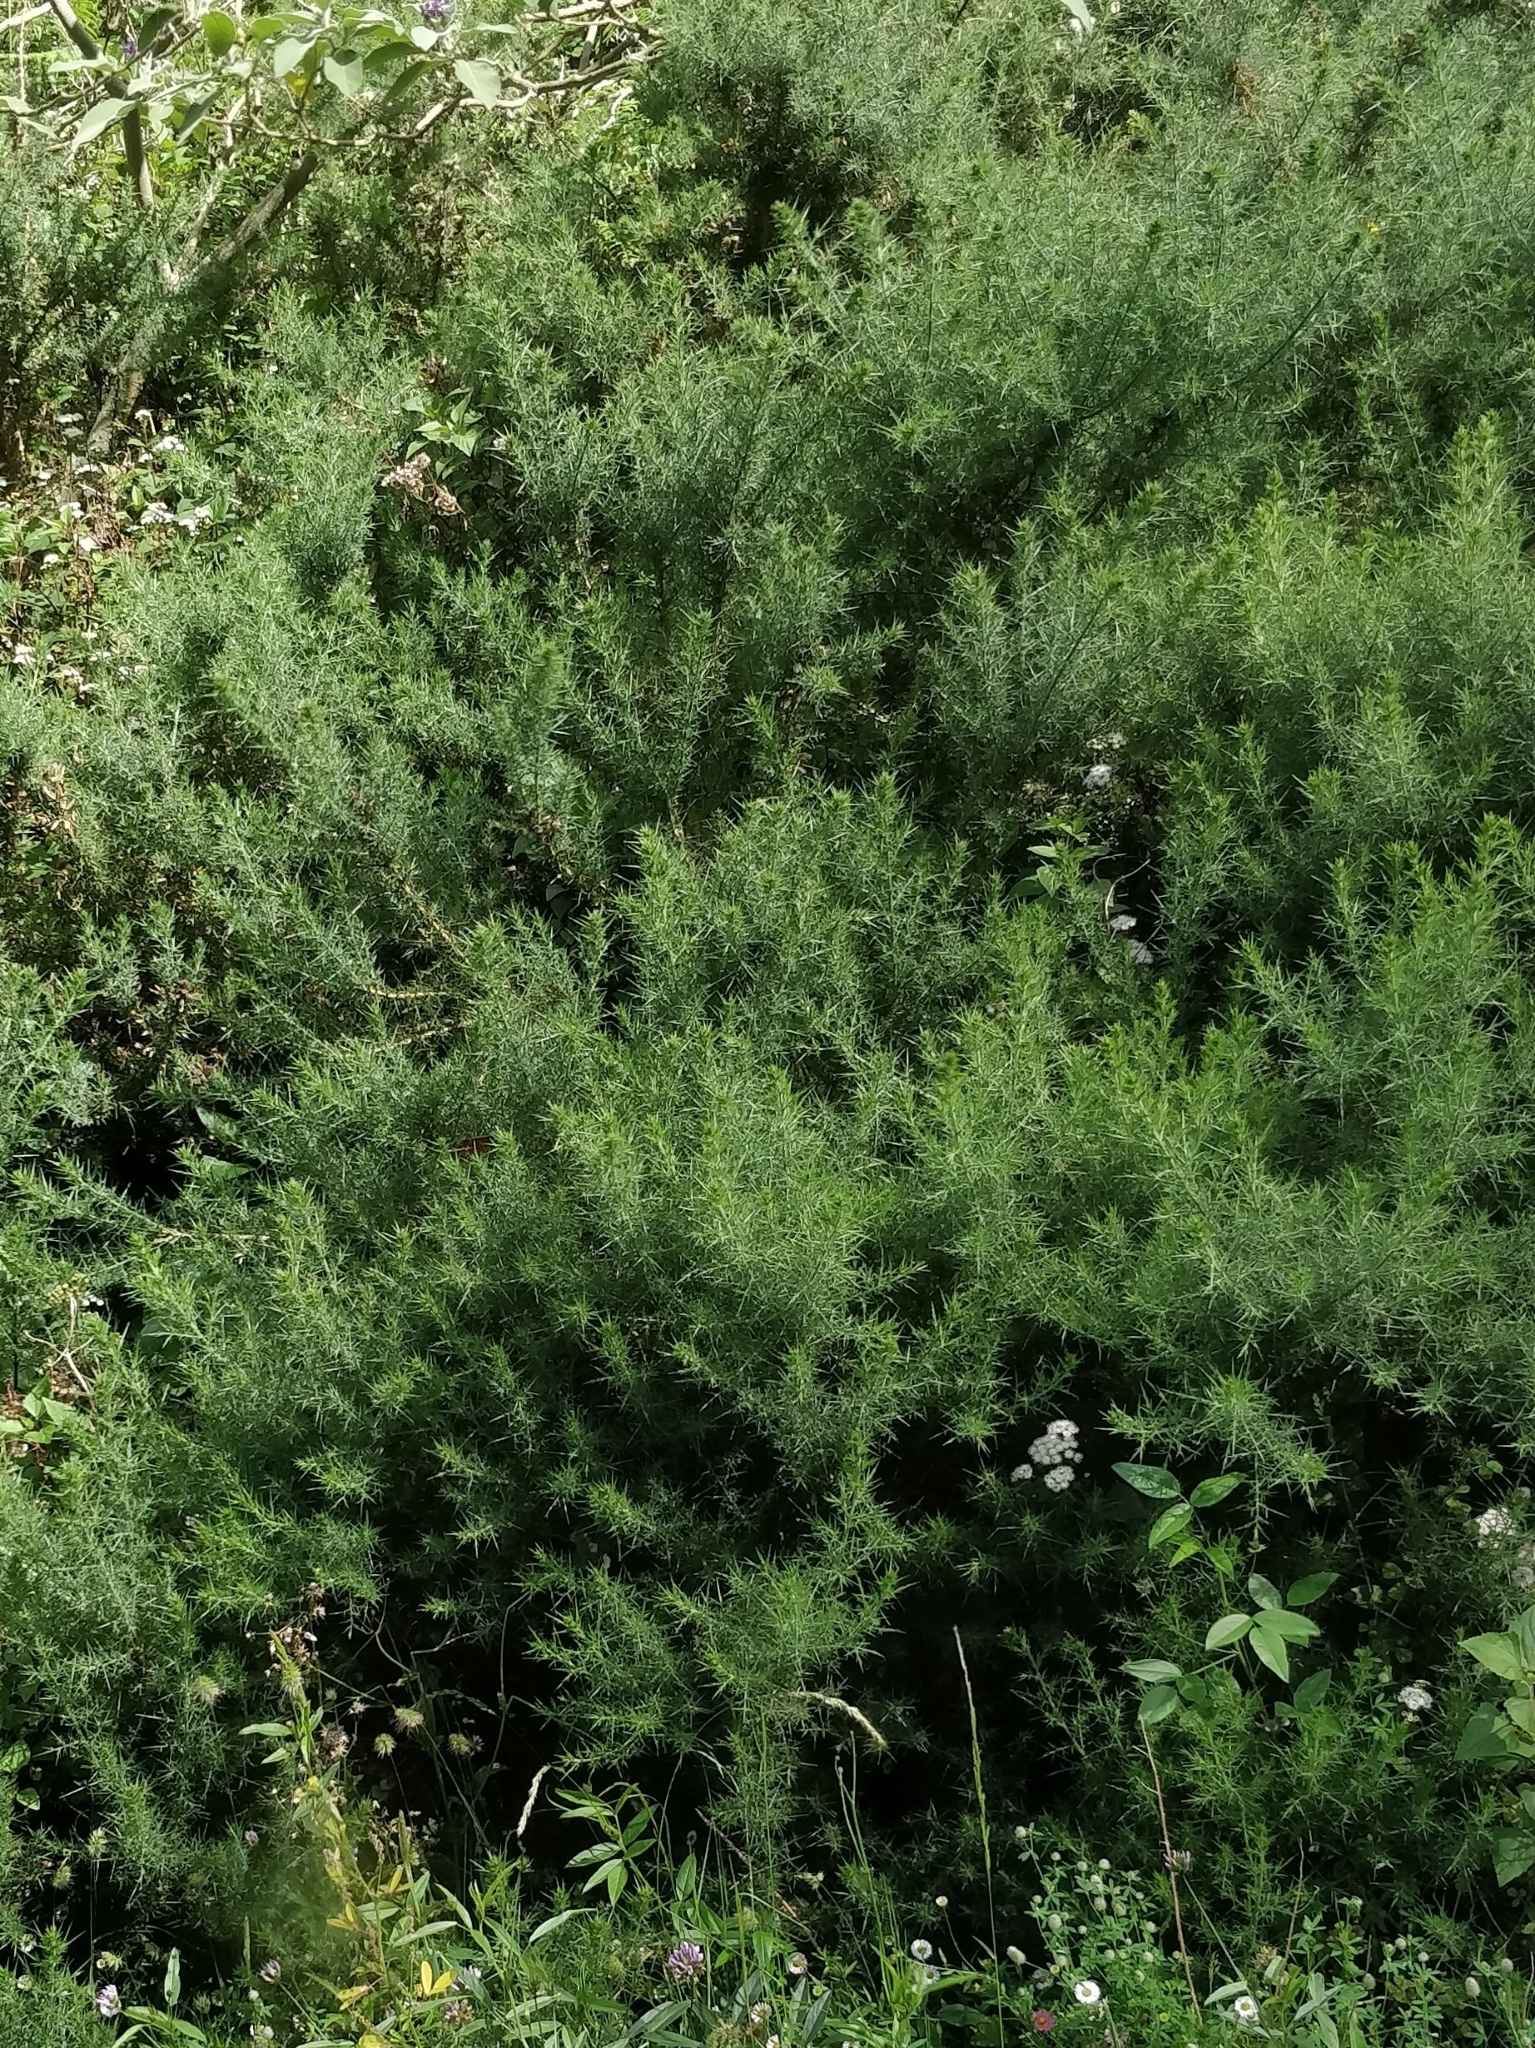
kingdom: Plantae
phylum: Tracheophyta
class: Magnoliopsida
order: Fabales
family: Fabaceae
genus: Ulex
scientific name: Ulex europaeus
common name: Common gorse
